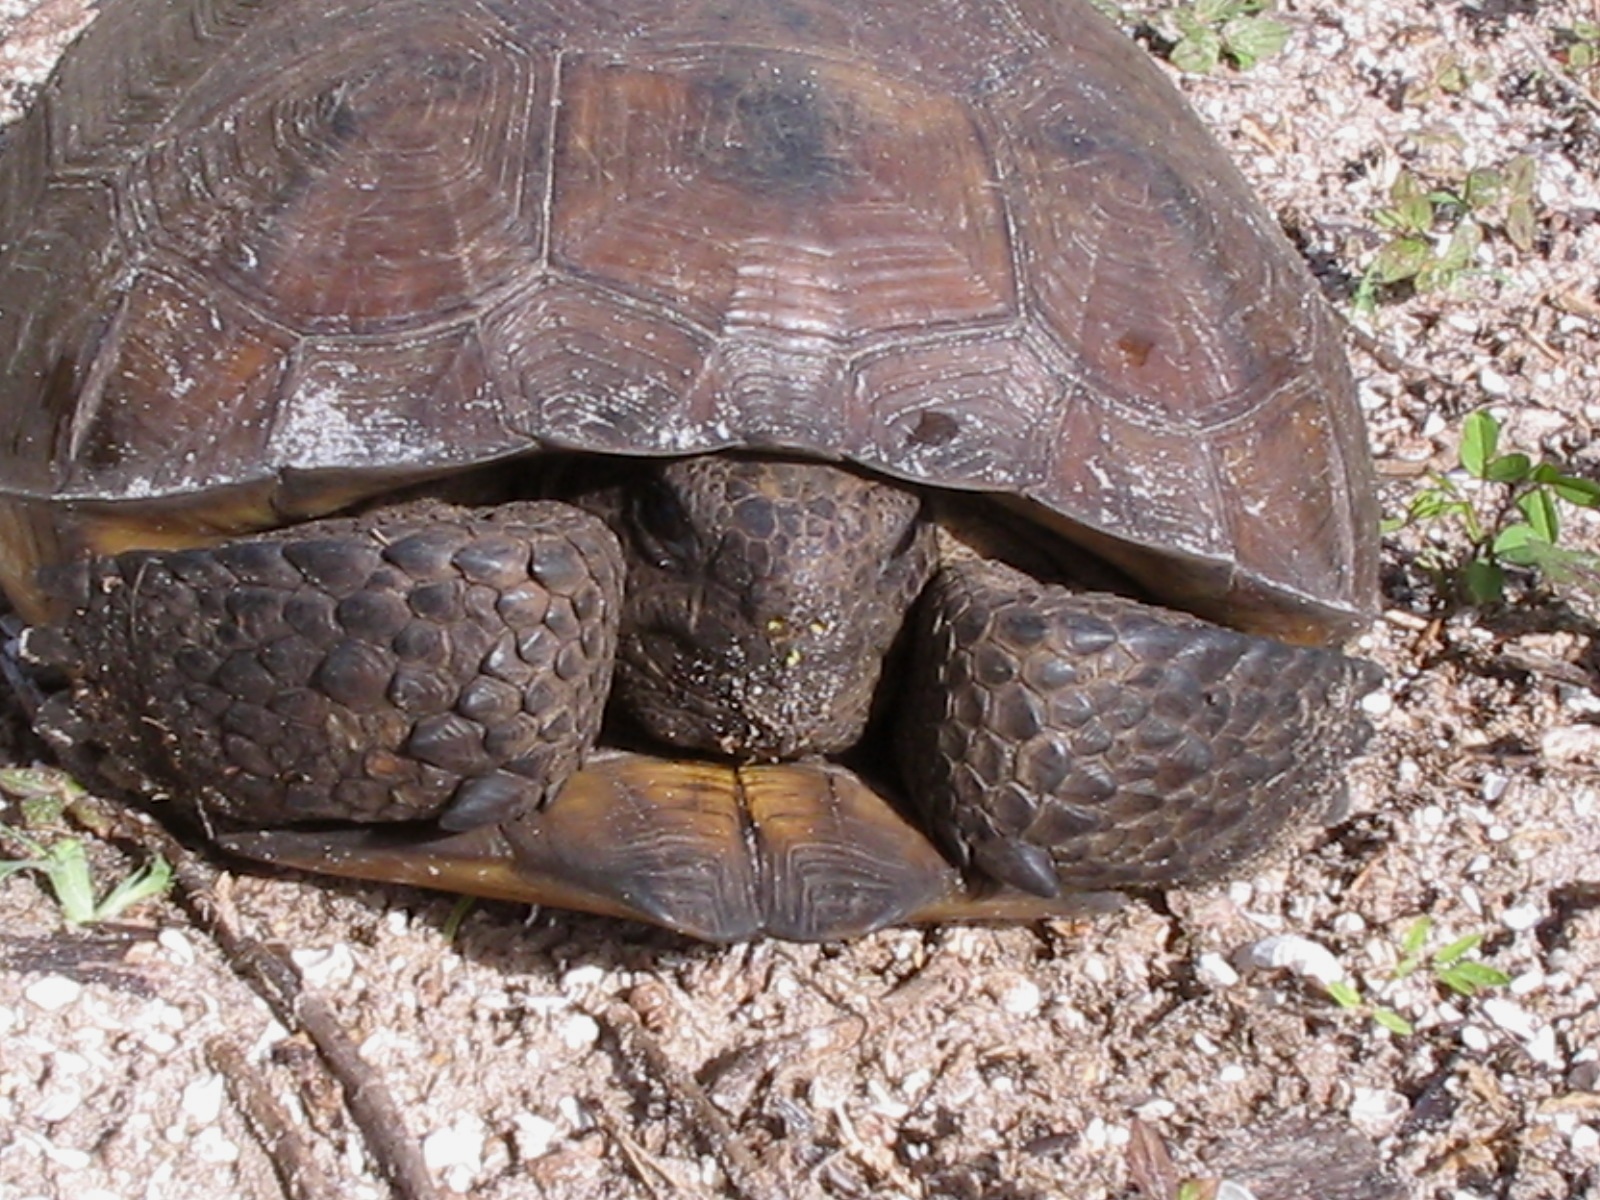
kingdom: Animalia
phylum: Chordata
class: Testudines
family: Testudinidae
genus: Gopherus
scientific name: Gopherus polyphemus
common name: Florida gopher tortoise
